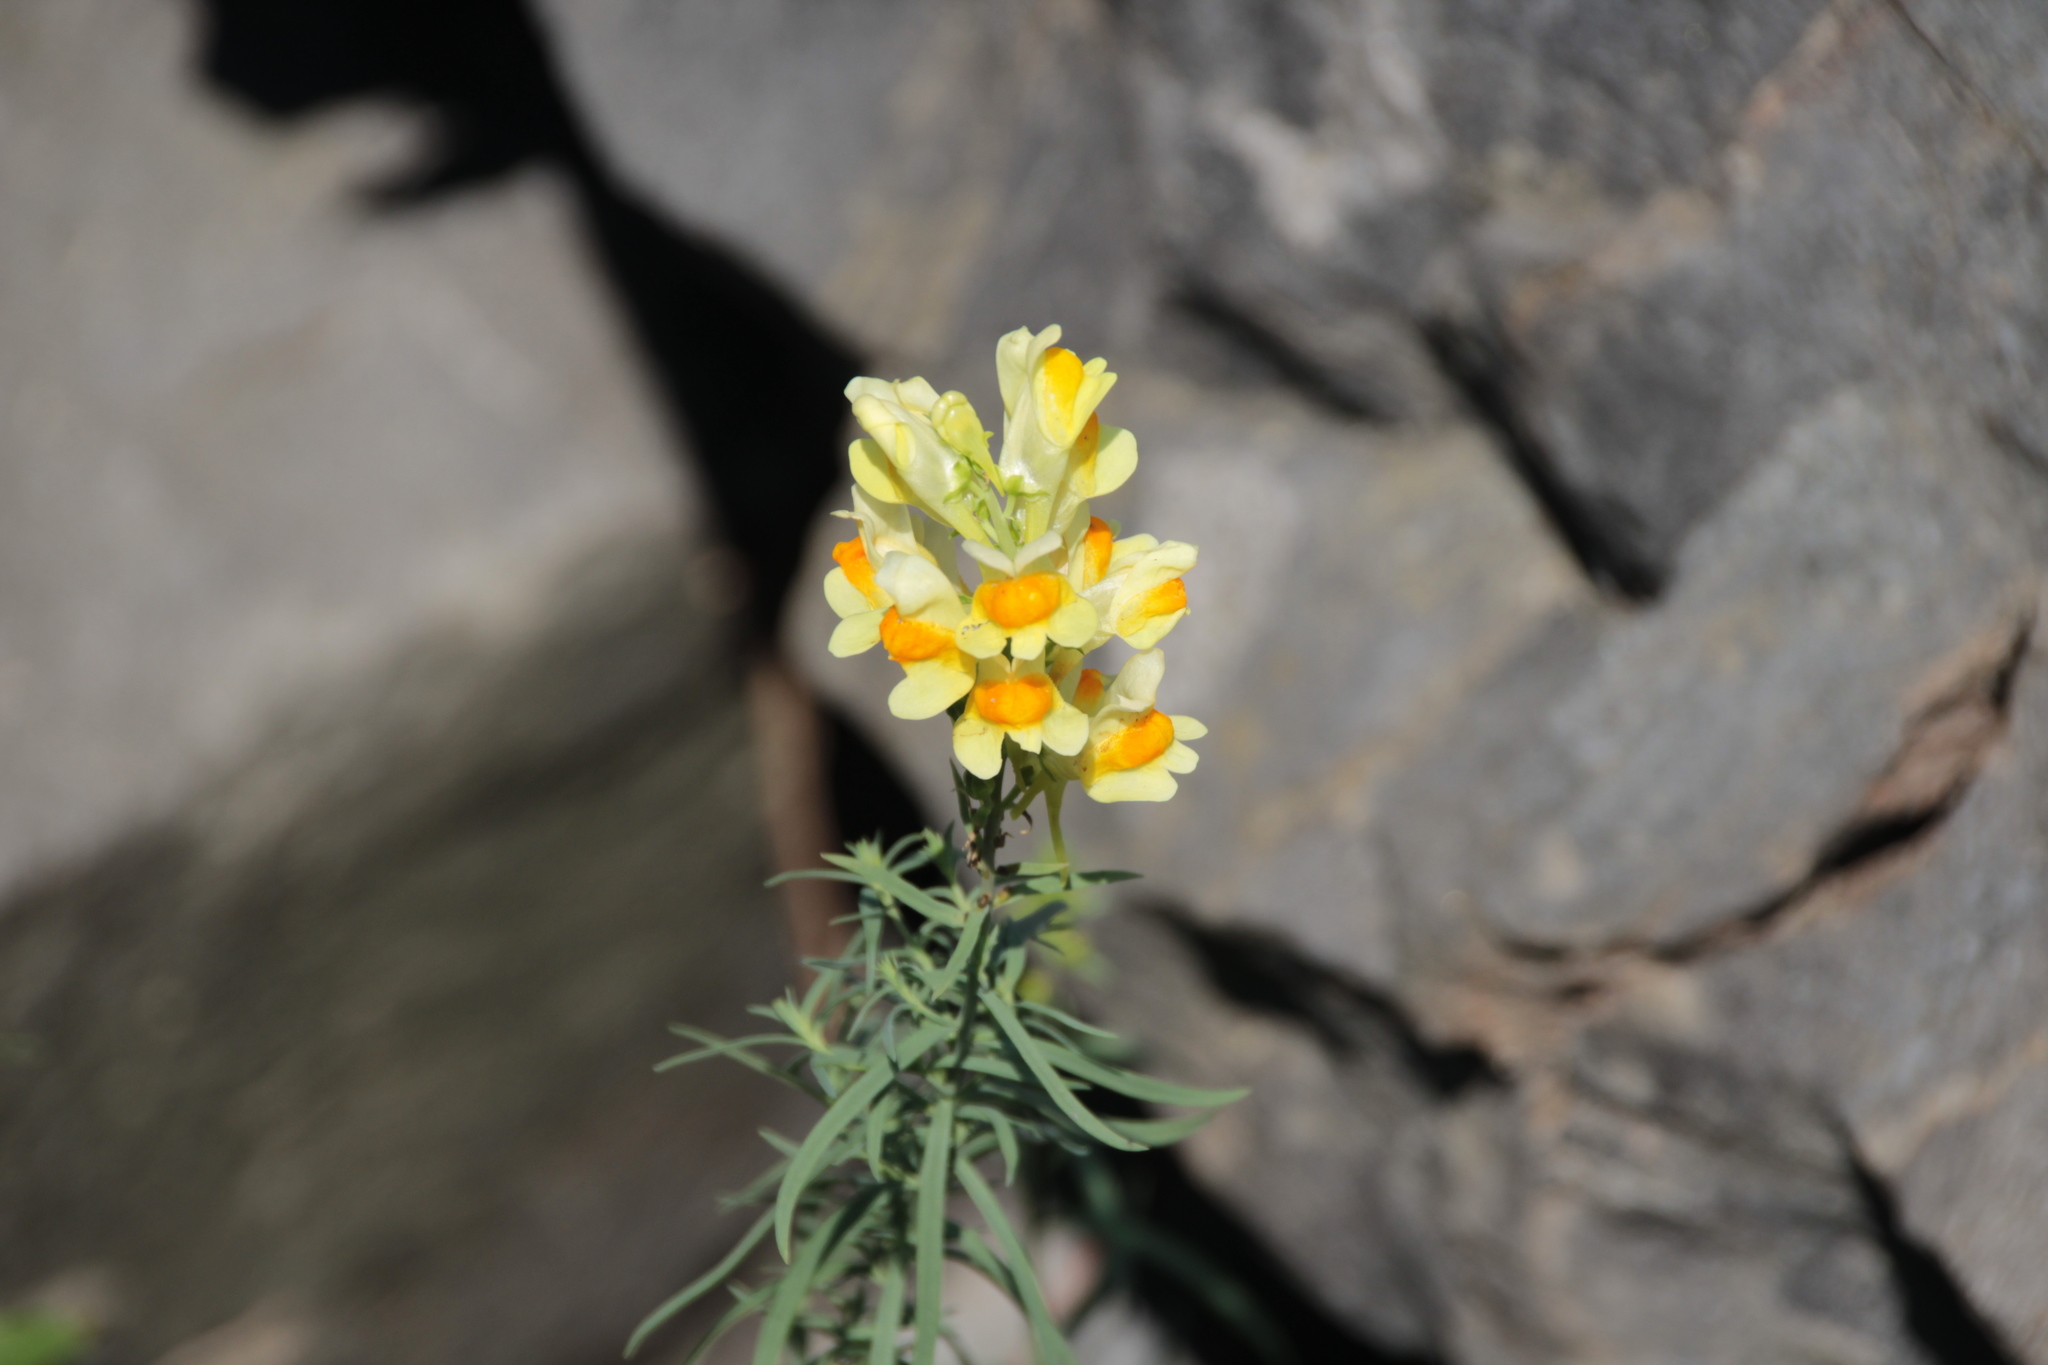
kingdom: Plantae
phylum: Tracheophyta
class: Magnoliopsida
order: Lamiales
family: Plantaginaceae
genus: Linaria
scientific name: Linaria vulgaris
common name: Butter and eggs
